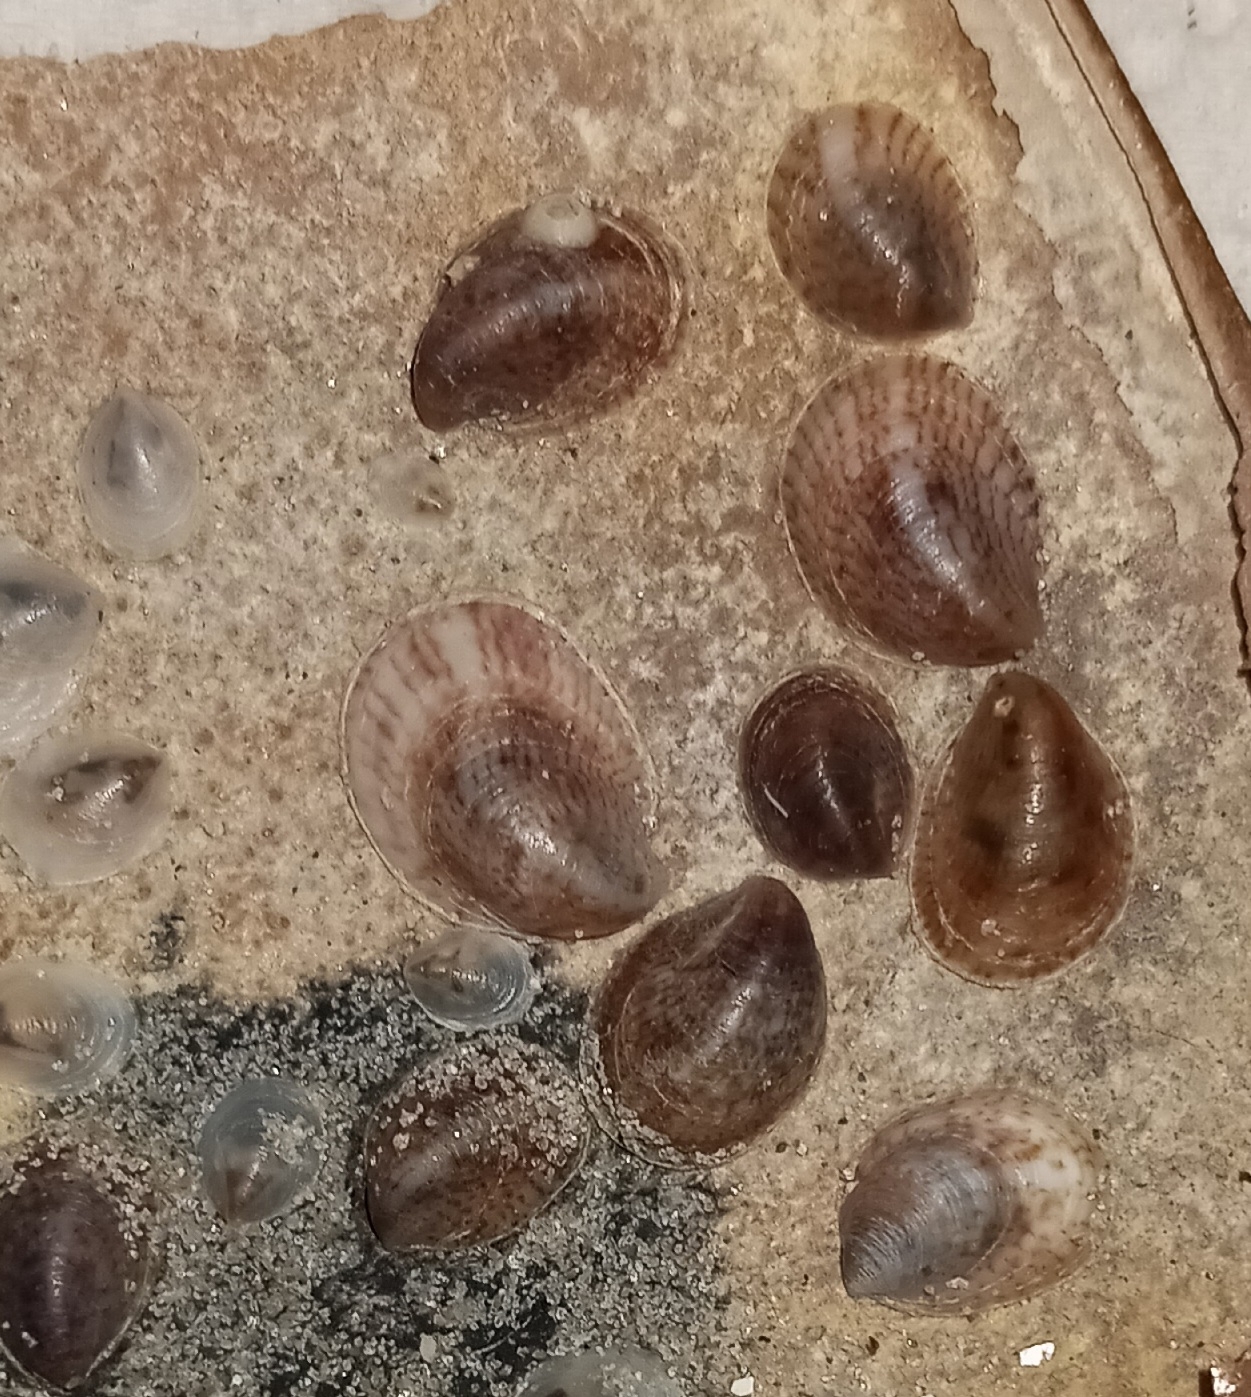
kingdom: Animalia
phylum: Mollusca
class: Gastropoda
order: Littorinimorpha
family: Calyptraeidae
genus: Crepidula
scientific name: Crepidula fornicata
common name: Slipper limpet
